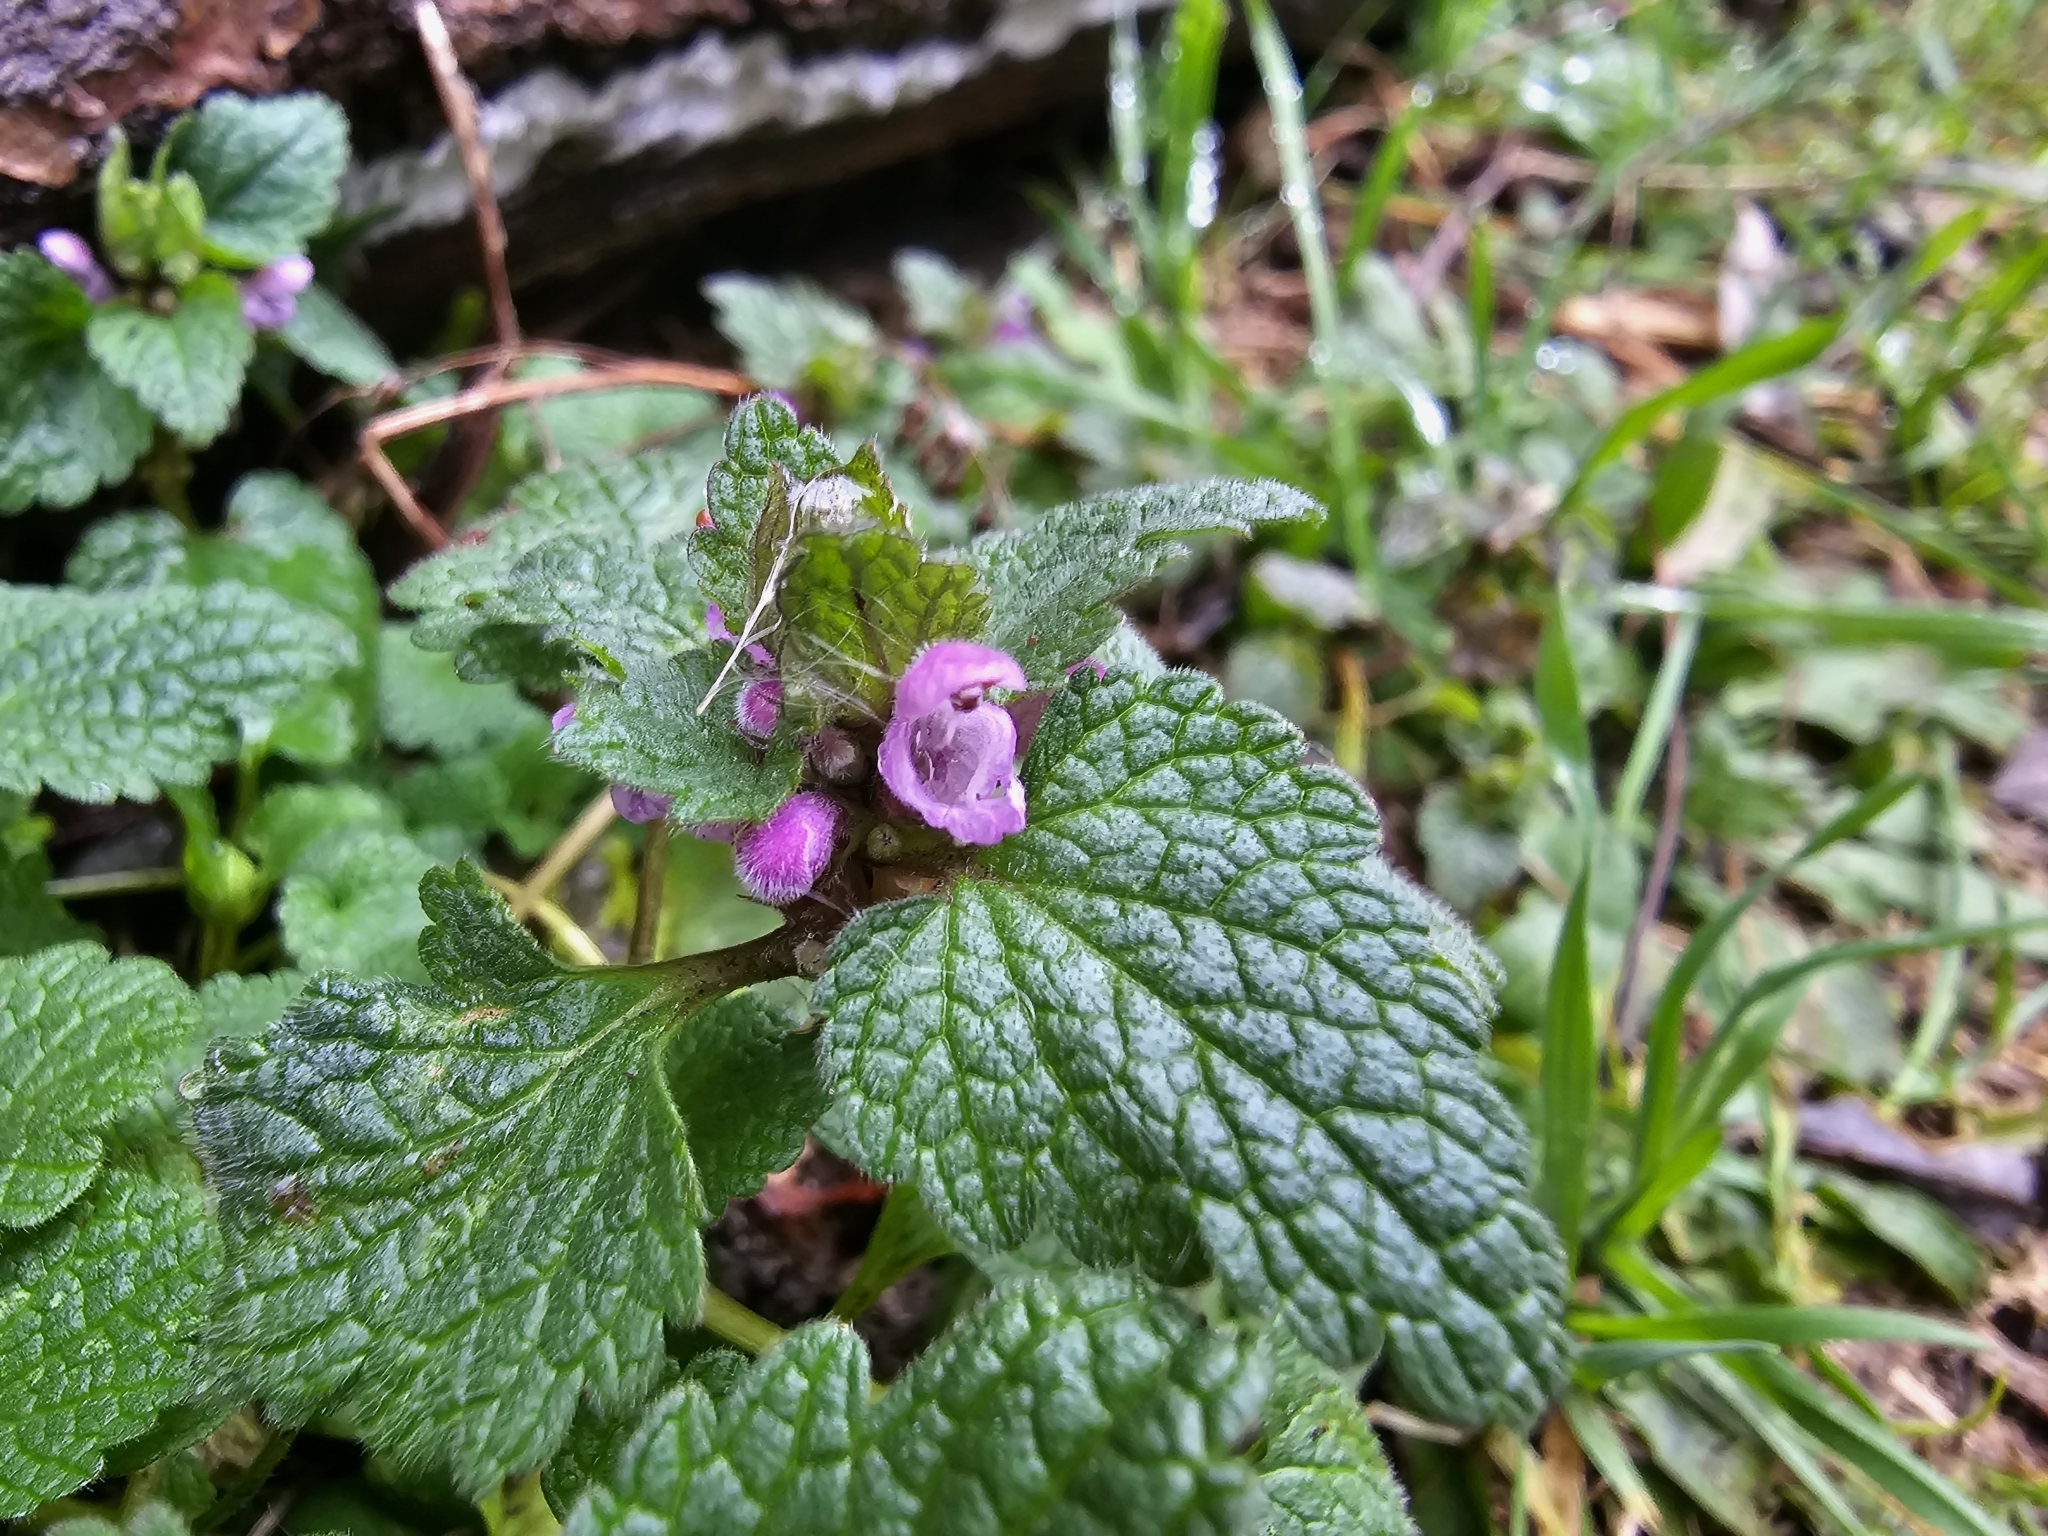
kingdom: Plantae
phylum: Tracheophyta
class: Magnoliopsida
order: Lamiales
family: Lamiaceae
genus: Lamium
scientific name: Lamium purpureum
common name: Red dead-nettle
